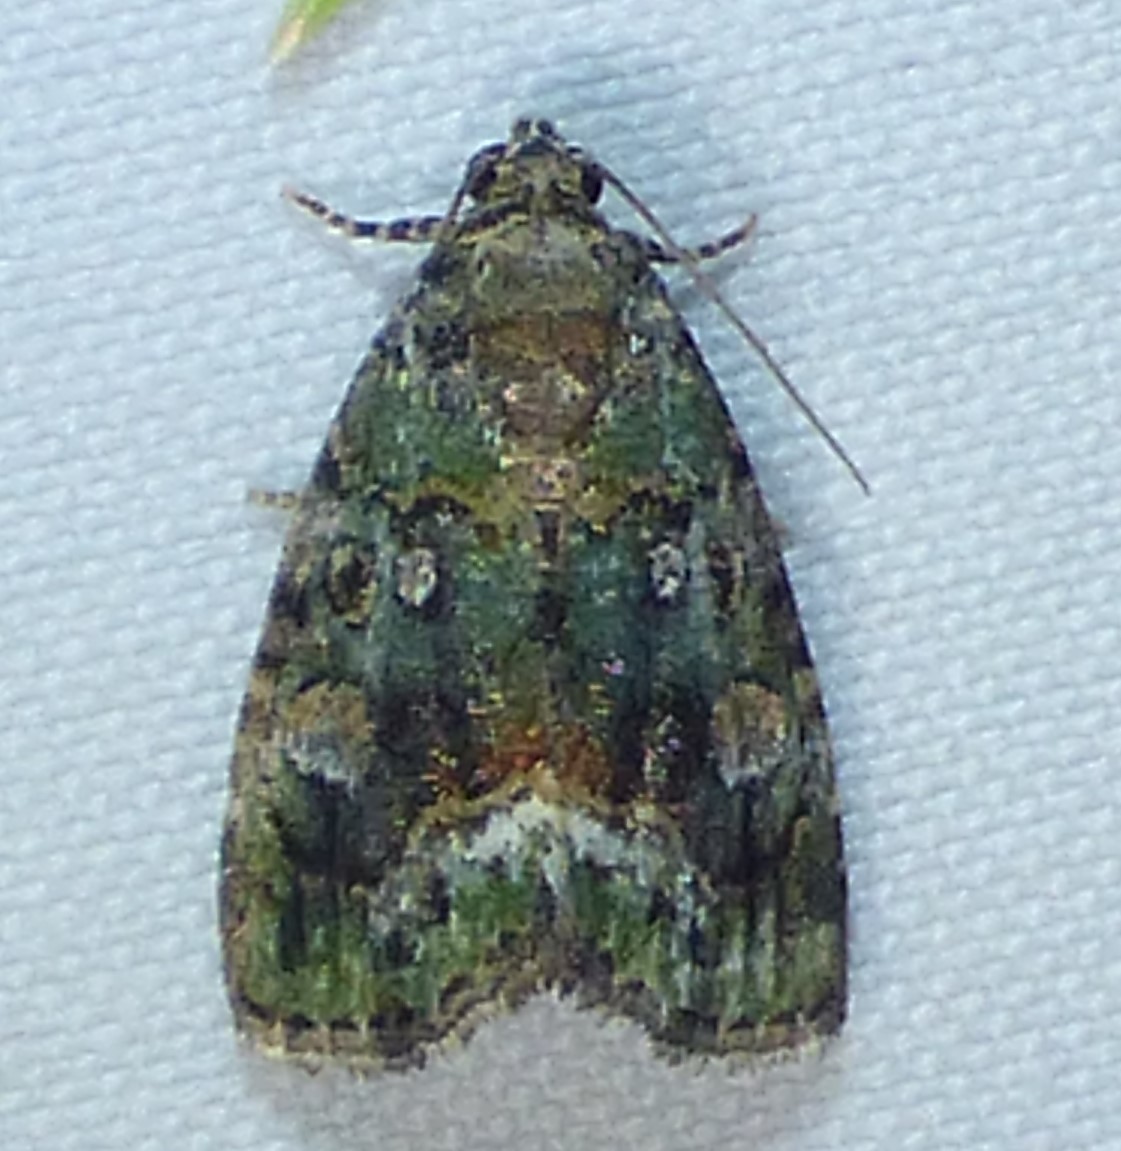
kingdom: Animalia
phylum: Arthropoda
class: Insecta
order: Lepidoptera
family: Noctuidae
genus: Lithacodia
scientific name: Lithacodia musta
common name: Small mossy glyph
